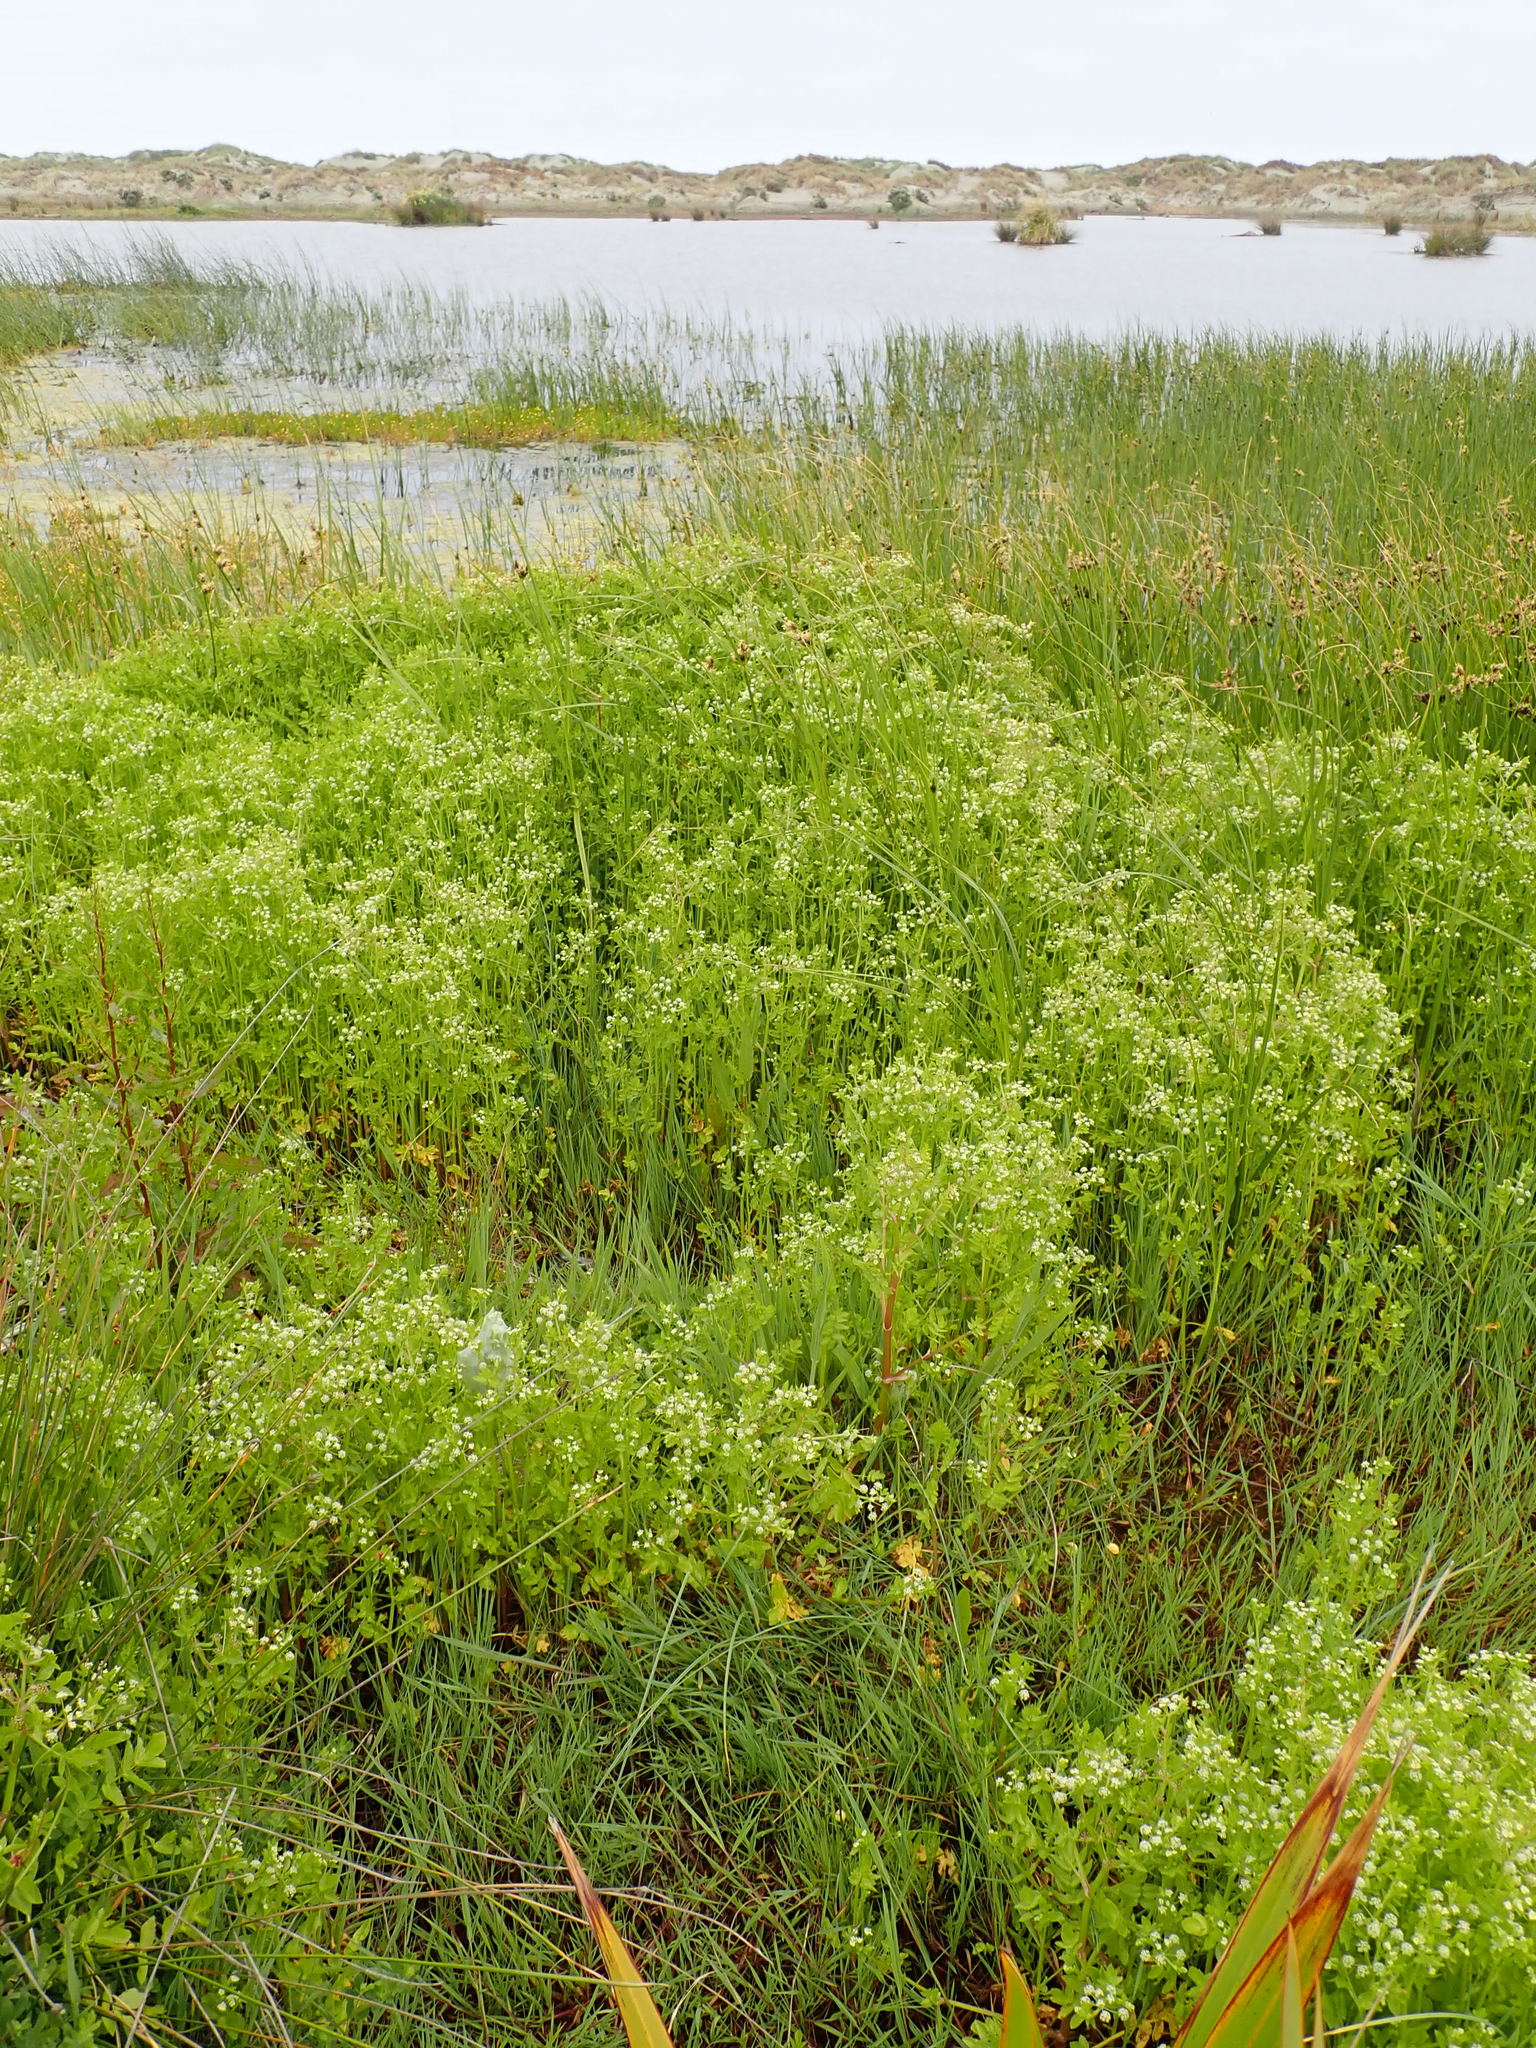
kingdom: Plantae
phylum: Tracheophyta
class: Magnoliopsida
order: Apiales
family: Apiaceae
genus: Apium
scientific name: Apium graveolens
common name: Wild celery
